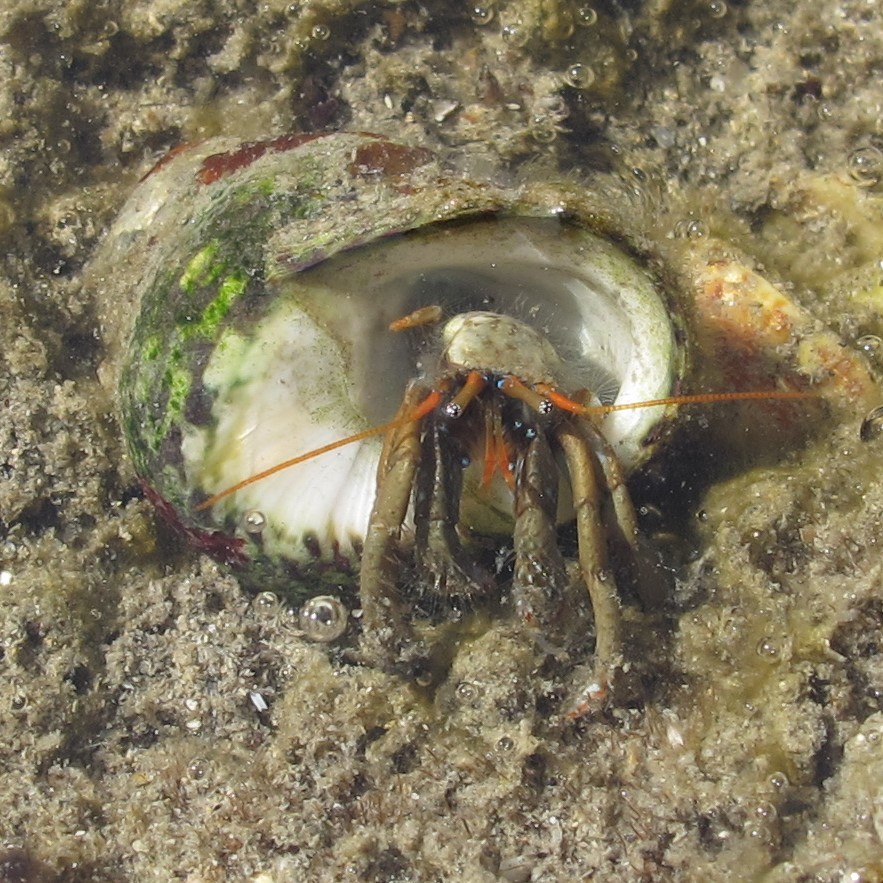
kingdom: Animalia
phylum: Arthropoda
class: Malacostraca
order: Decapoda
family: Diogenidae
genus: Clibanarius
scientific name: Clibanarius erythropus
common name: Hermit crab
